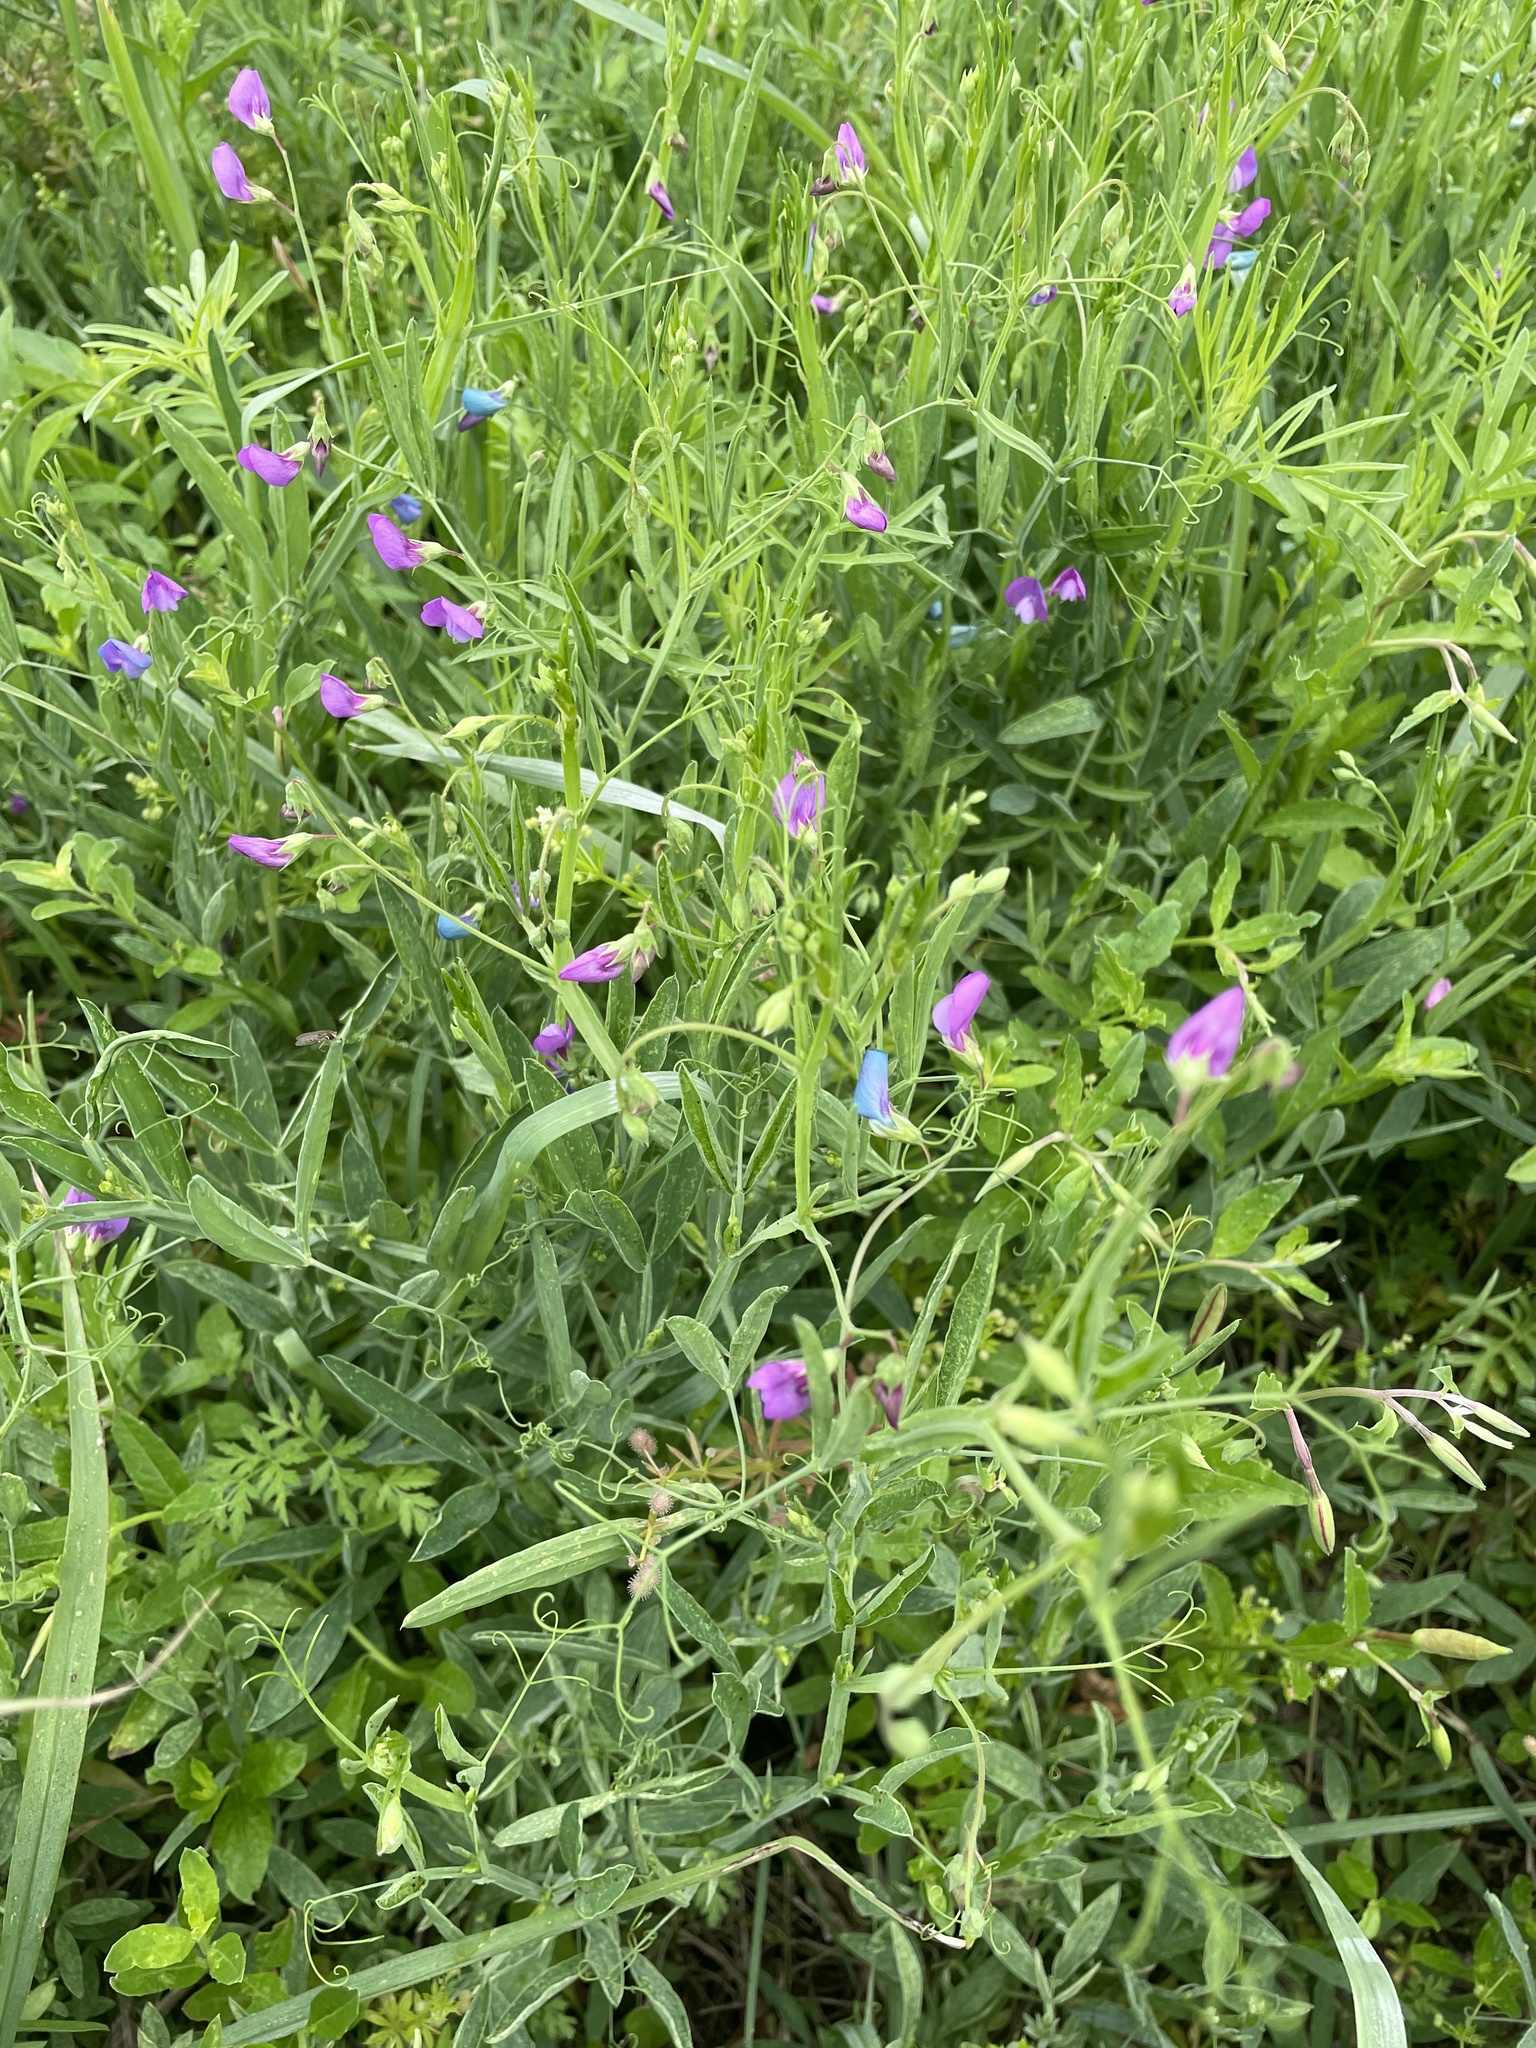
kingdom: Plantae
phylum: Tracheophyta
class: Magnoliopsida
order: Fabales
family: Fabaceae
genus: Lathyrus
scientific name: Lathyrus hirsutus
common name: Hairy vetchling
